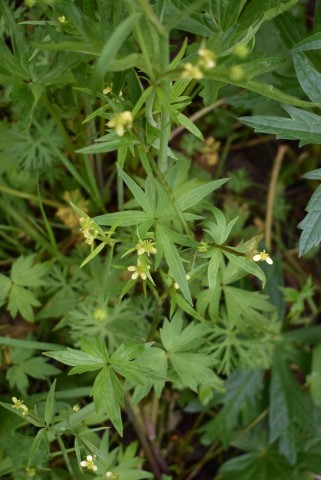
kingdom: Plantae
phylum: Tracheophyta
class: Magnoliopsida
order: Ranunculales
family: Ranunculaceae
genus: Ranunculus
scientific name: Ranunculus uncinatus
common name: Little buttercup
